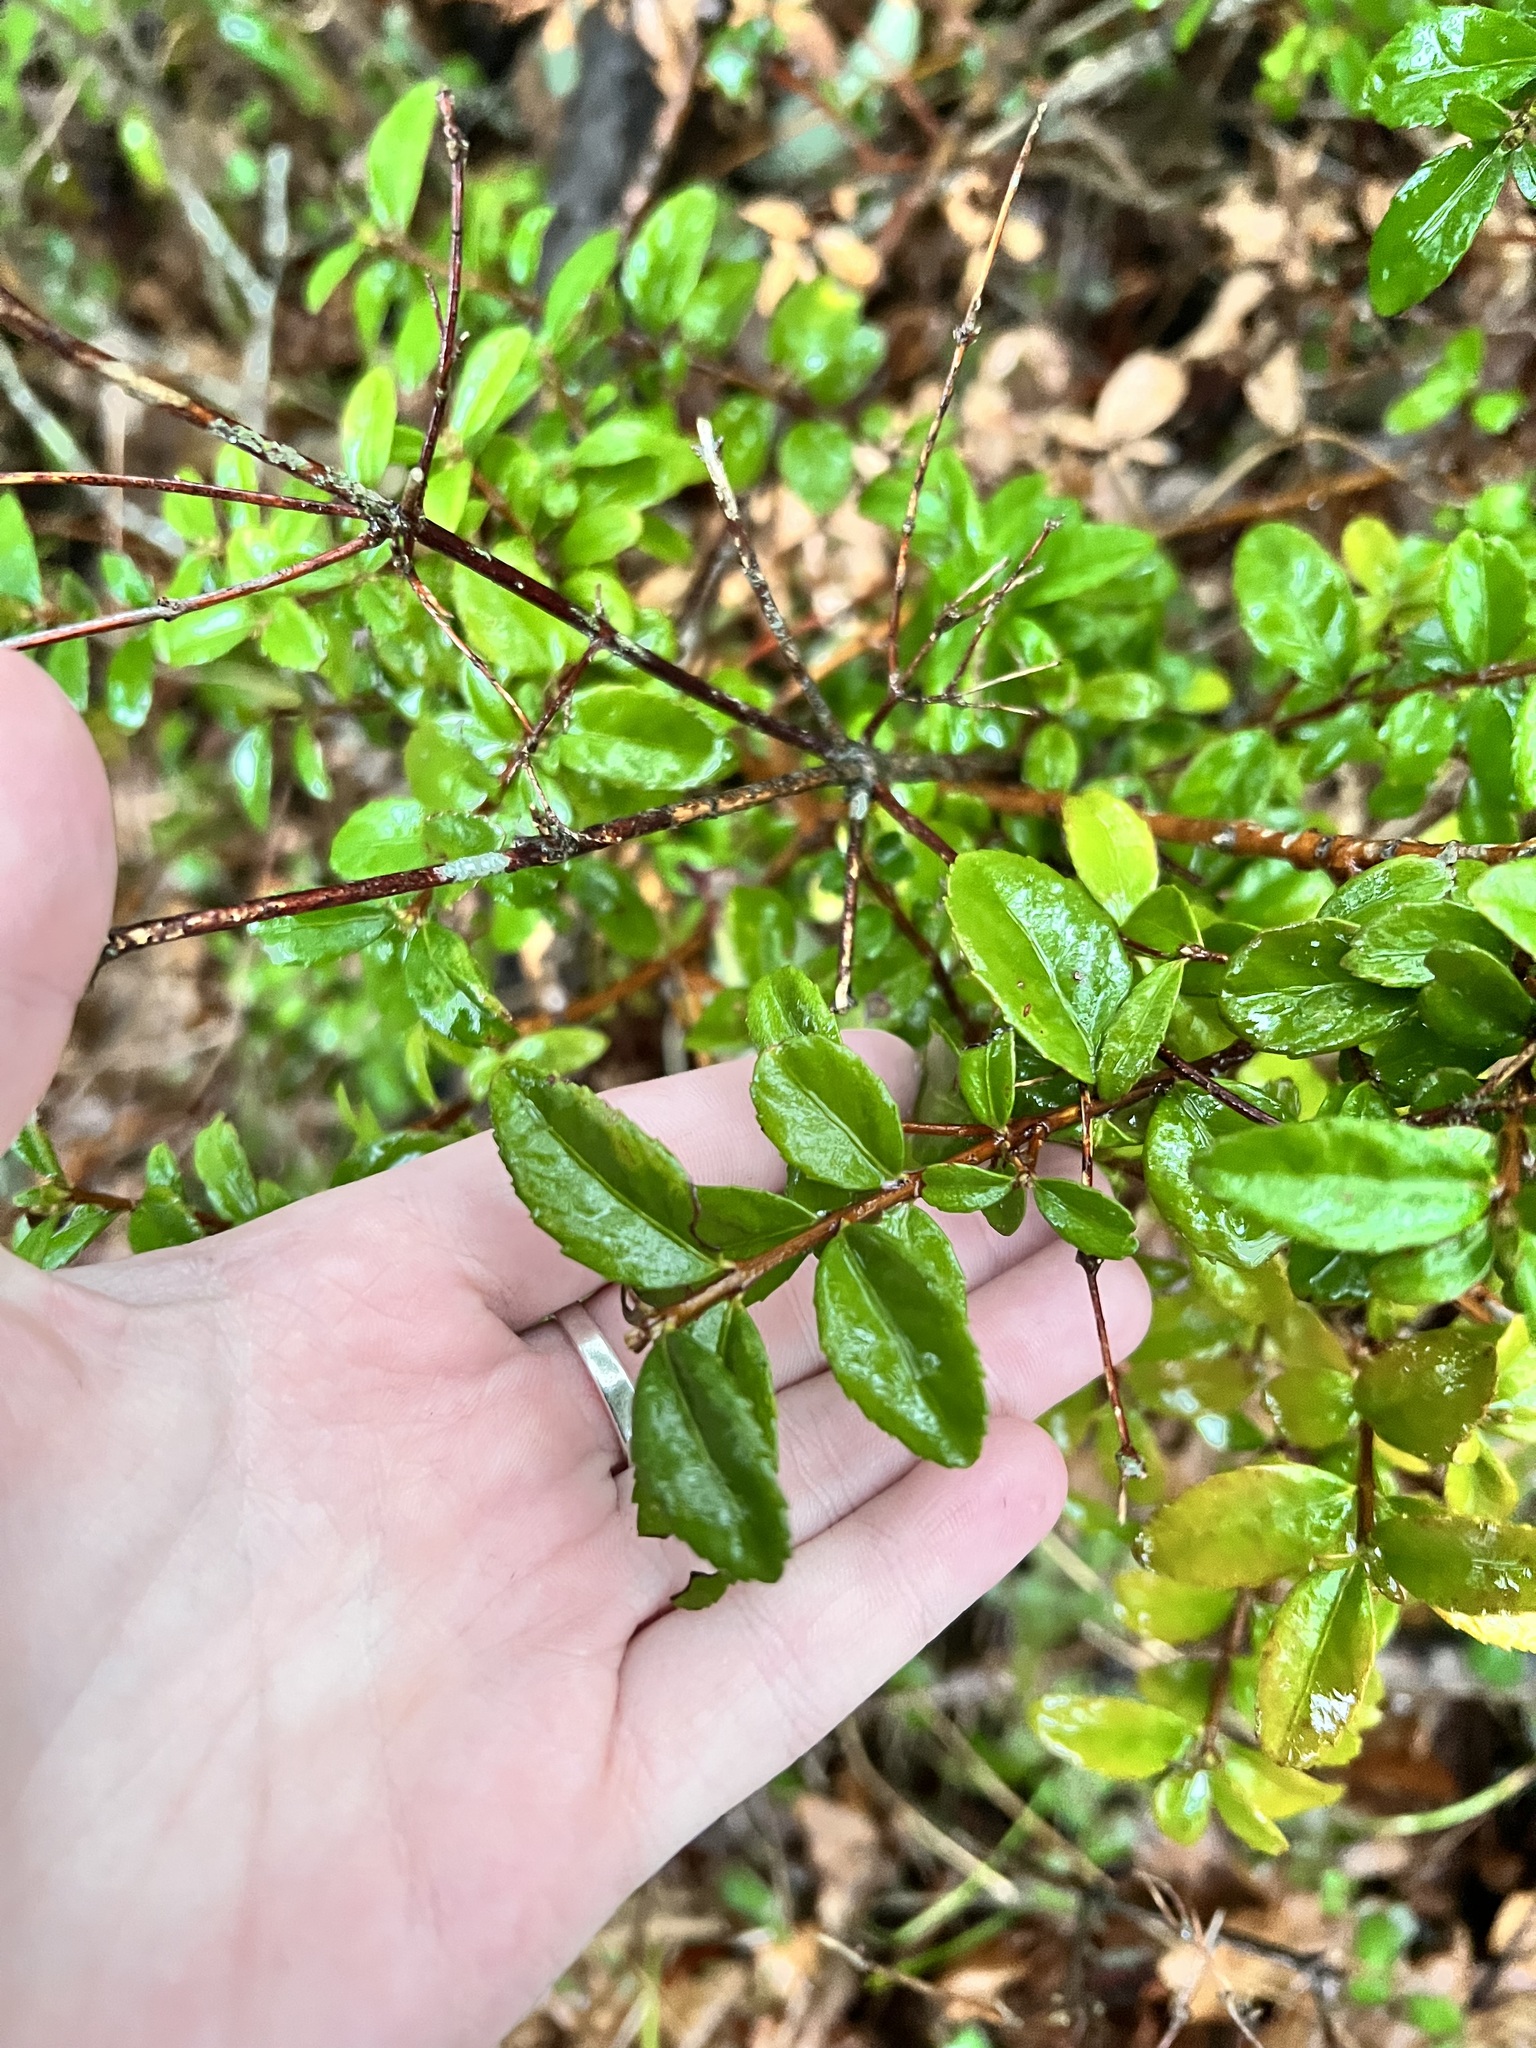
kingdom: Plantae
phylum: Tracheophyta
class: Magnoliopsida
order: Celastrales
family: Celastraceae
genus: Paxistima
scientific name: Paxistima myrsinites
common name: Mountain-lover
